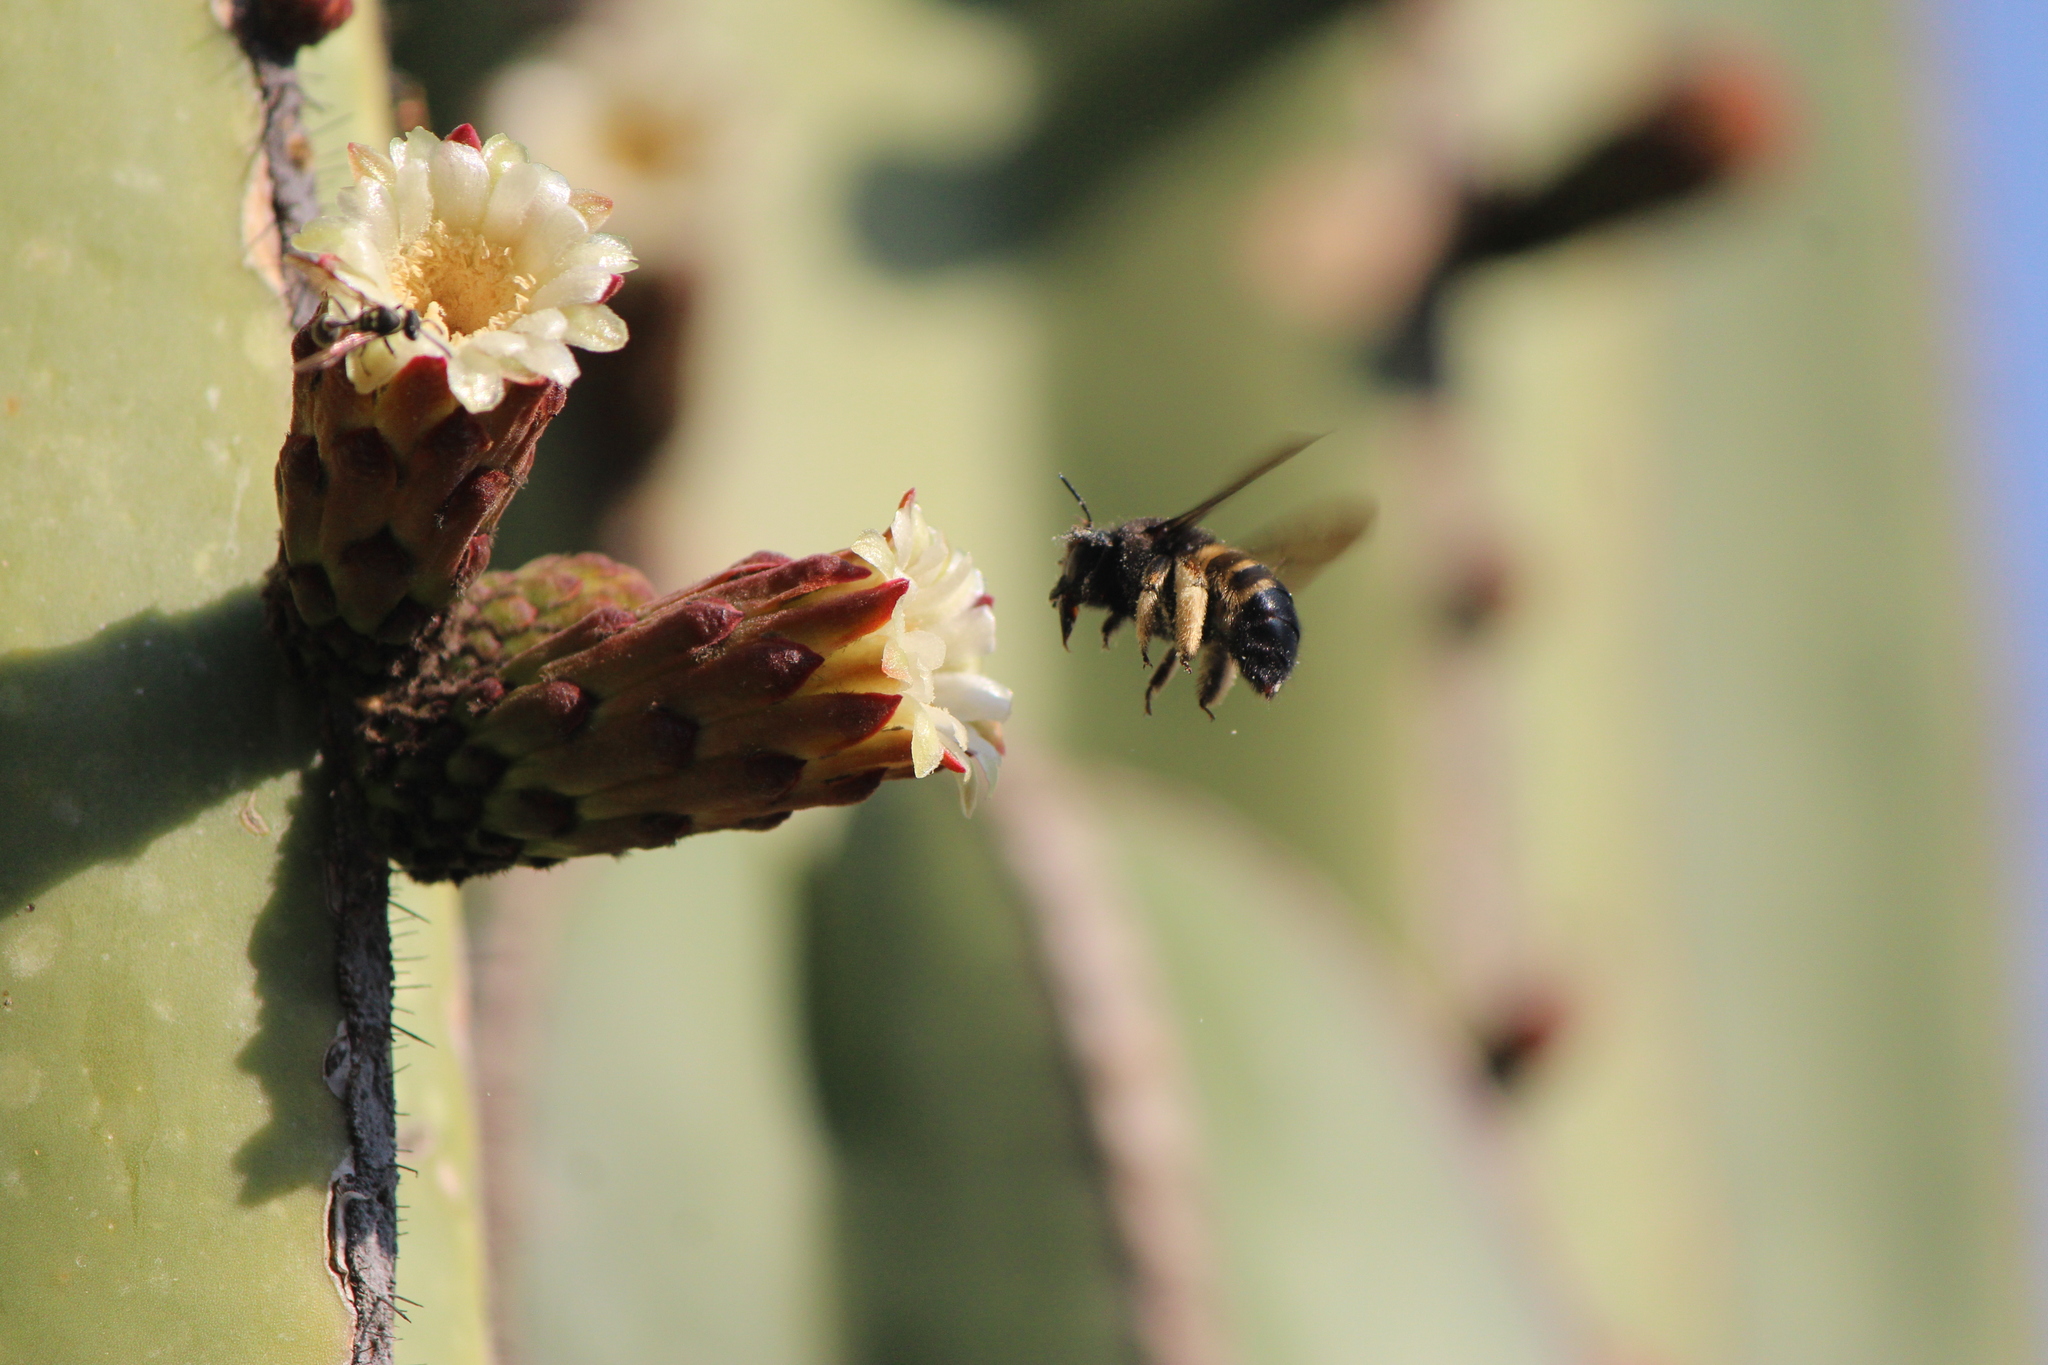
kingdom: Animalia
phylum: Arthropoda
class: Insecta
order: Hymenoptera
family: Apidae
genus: Xylocopa
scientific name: Xylocopa tabaniformis
